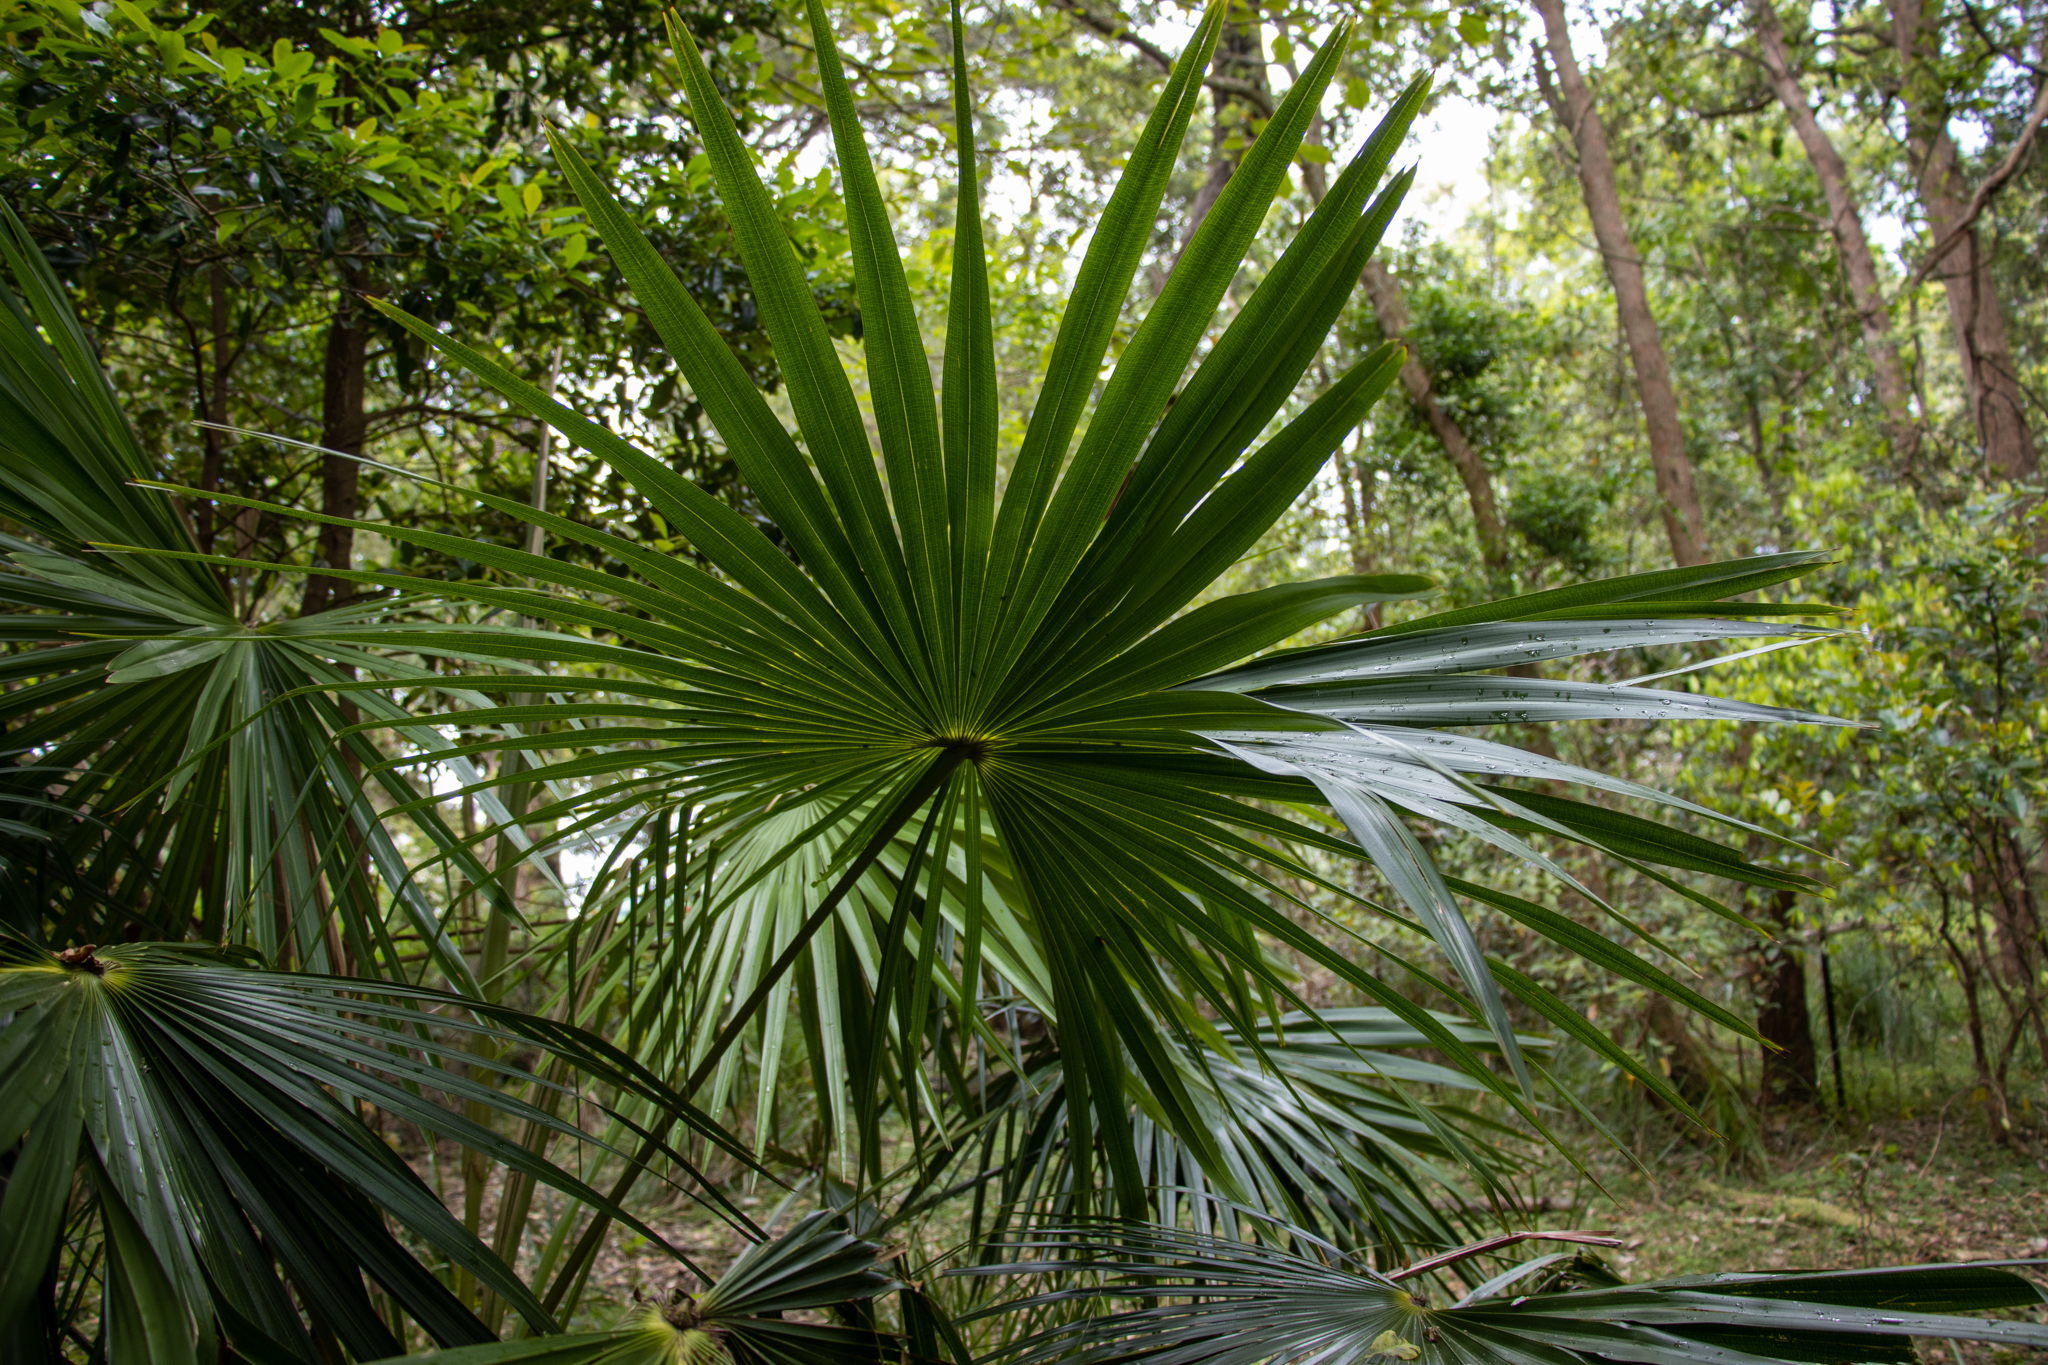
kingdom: Plantae
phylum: Tracheophyta
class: Liliopsida
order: Arecales
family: Arecaceae
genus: Livistona
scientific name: Livistona australis
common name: Cabbage fan palm
